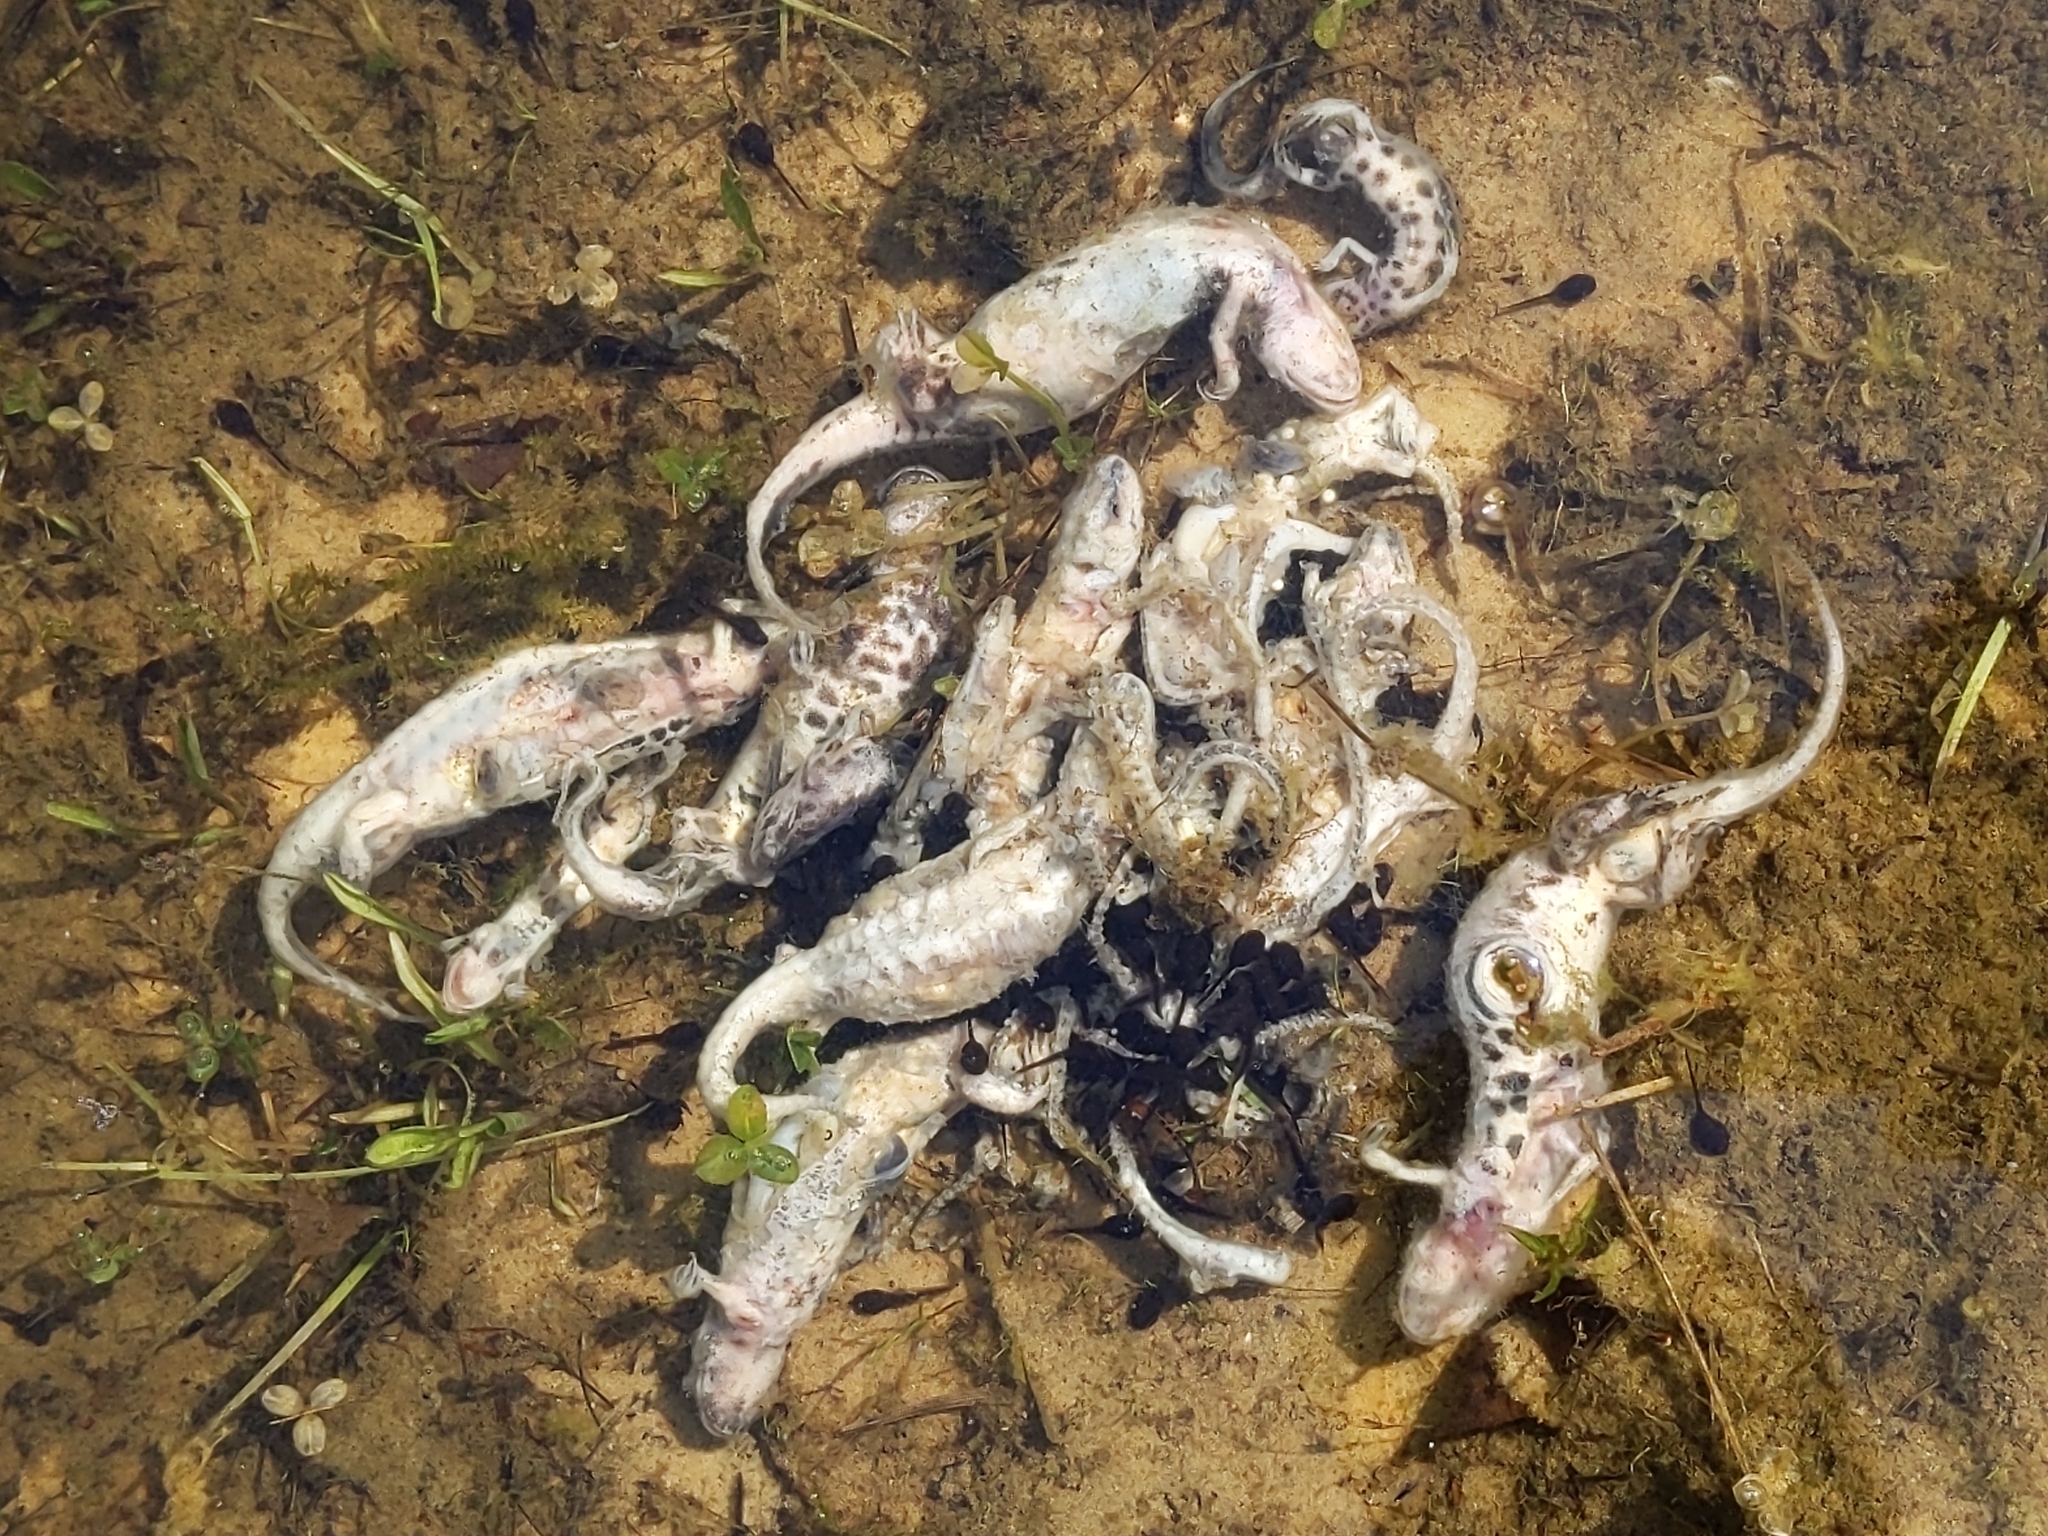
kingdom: Animalia
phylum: Chordata
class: Amphibia
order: Caudata
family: Salamandridae
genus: Lissotriton
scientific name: Lissotriton vulgaris
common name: Smooth newt
